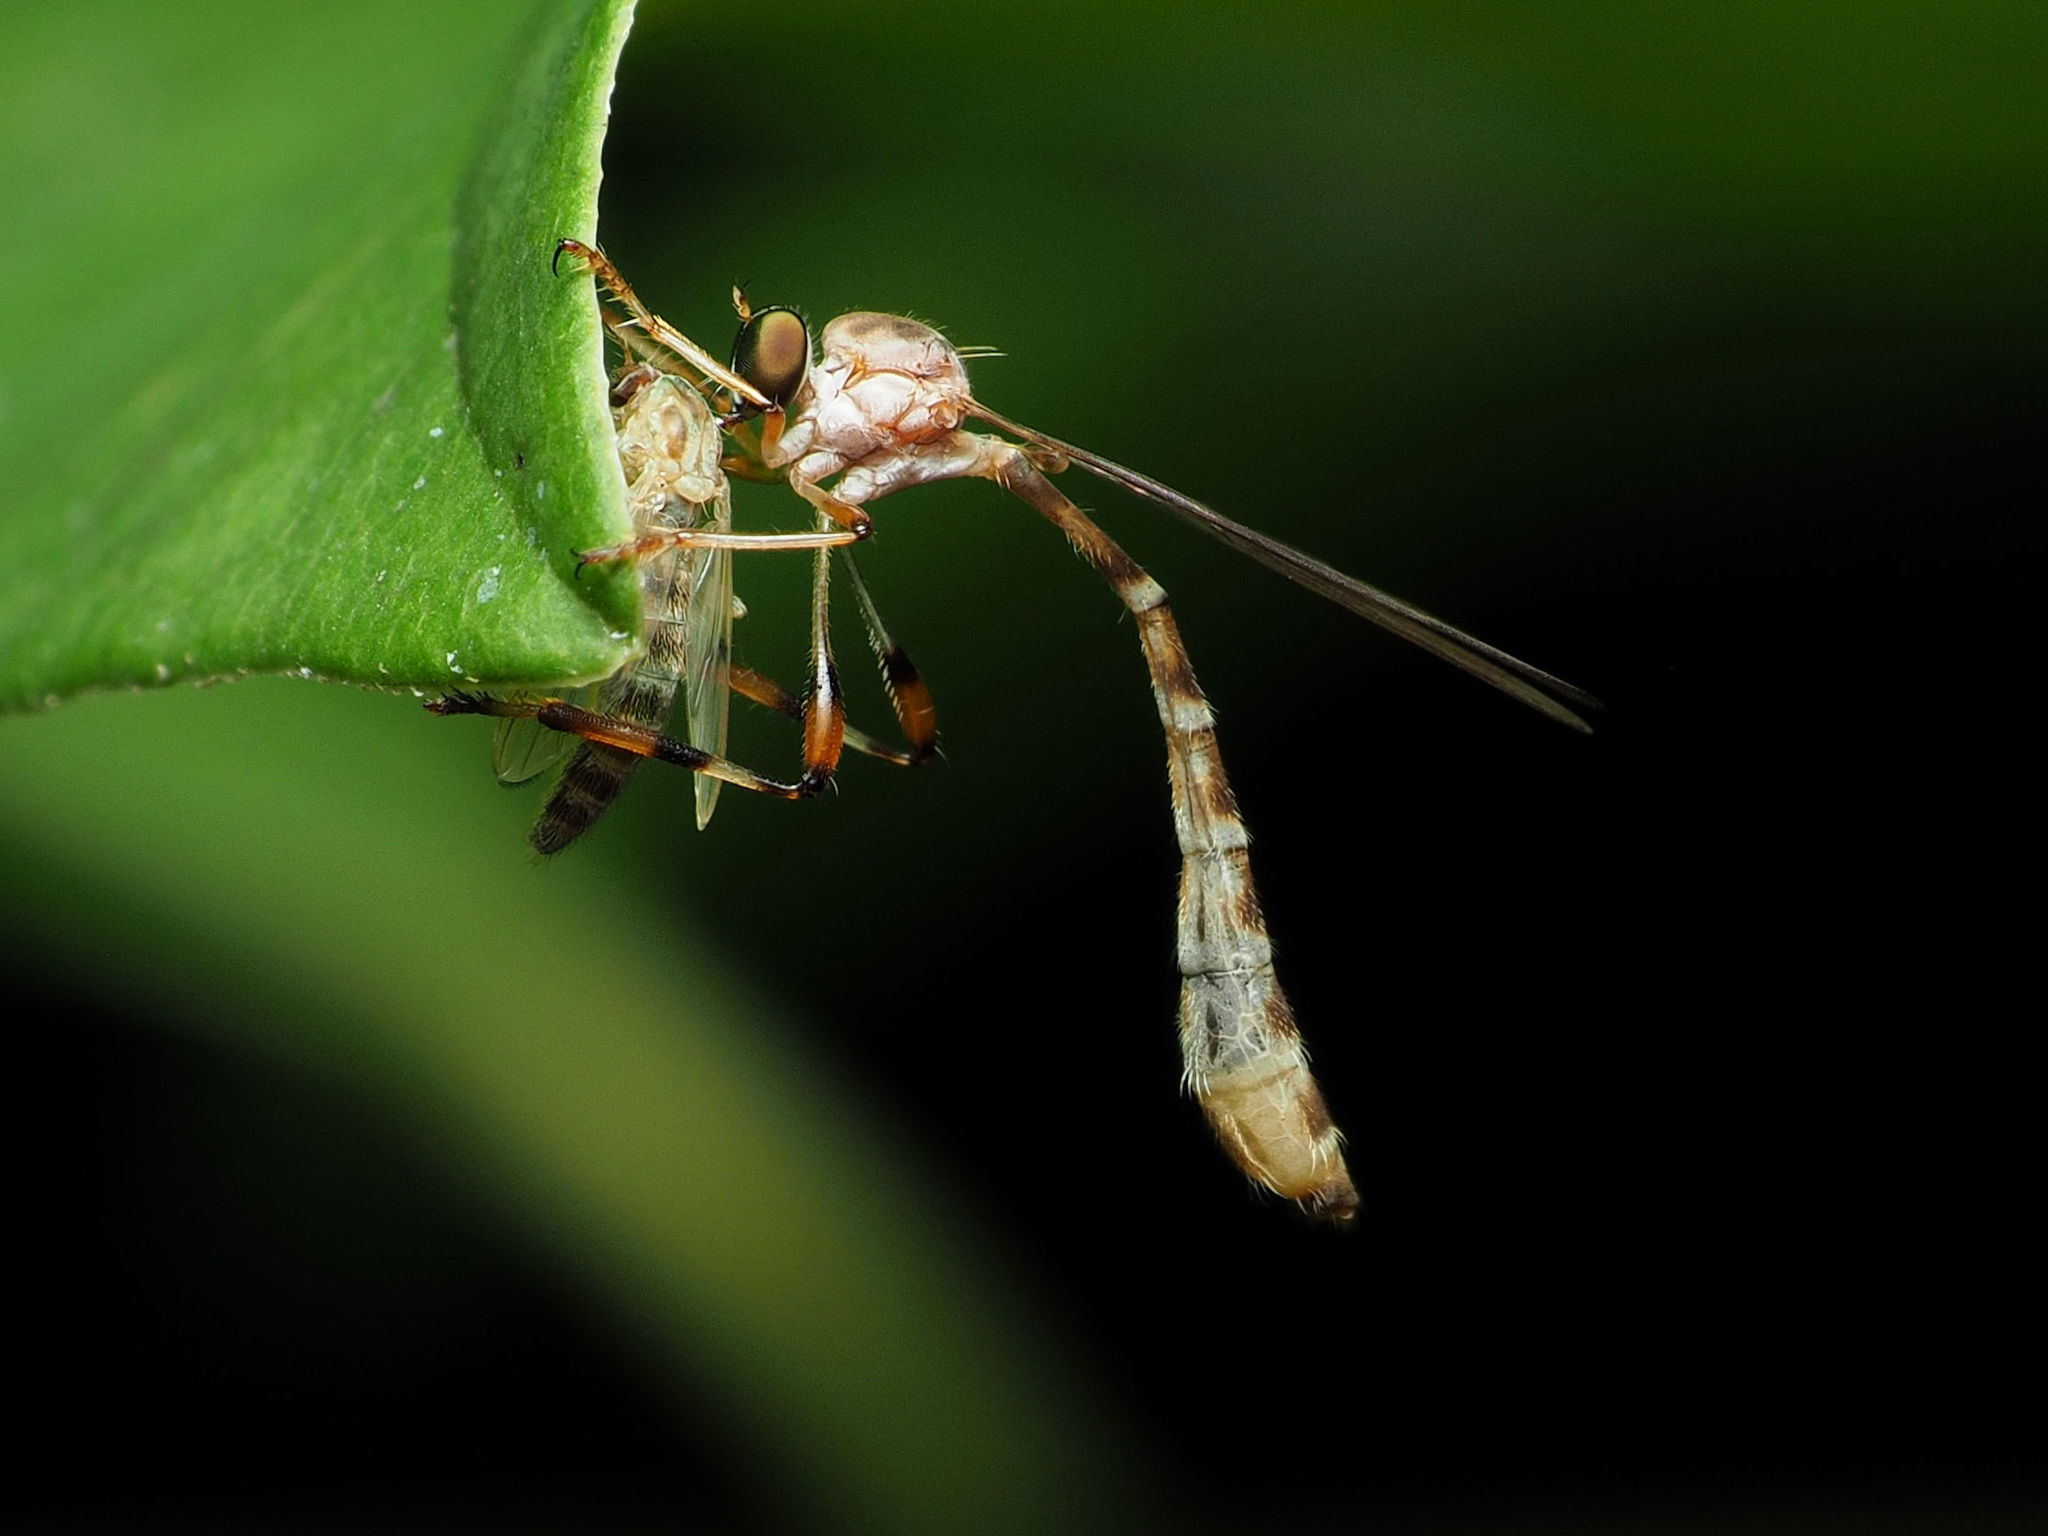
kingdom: Animalia
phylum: Arthropoda
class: Insecta
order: Diptera
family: Asilidae
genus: Psilonyx
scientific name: Psilonyx annulatus
